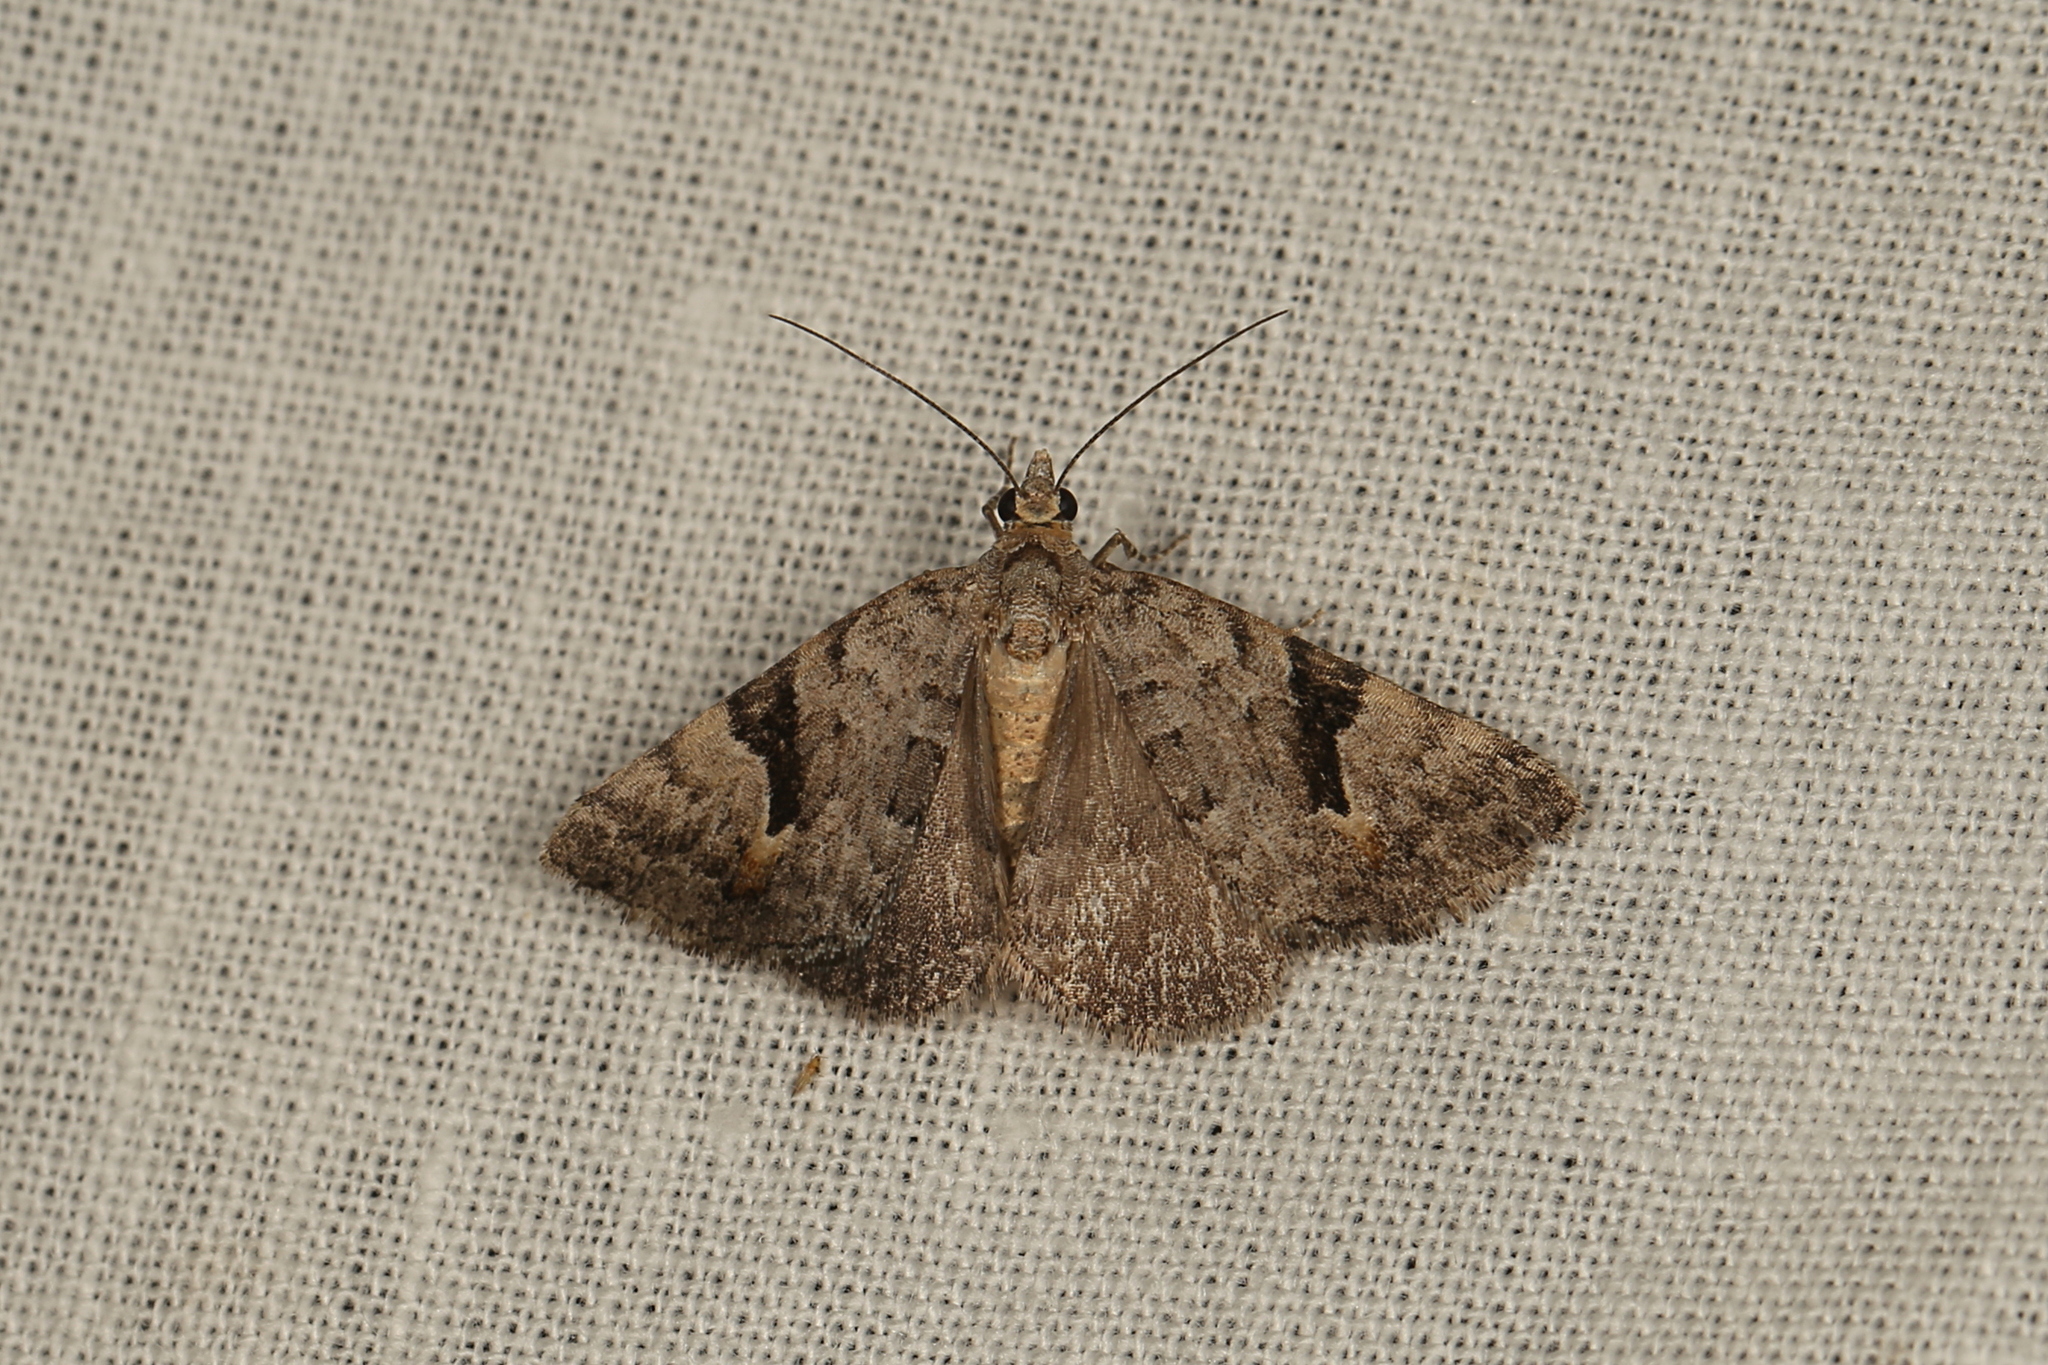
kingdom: Animalia
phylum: Arthropoda
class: Insecta
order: Lepidoptera
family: Geometridae
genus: Dichromodes
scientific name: Dichromodes anelictis
